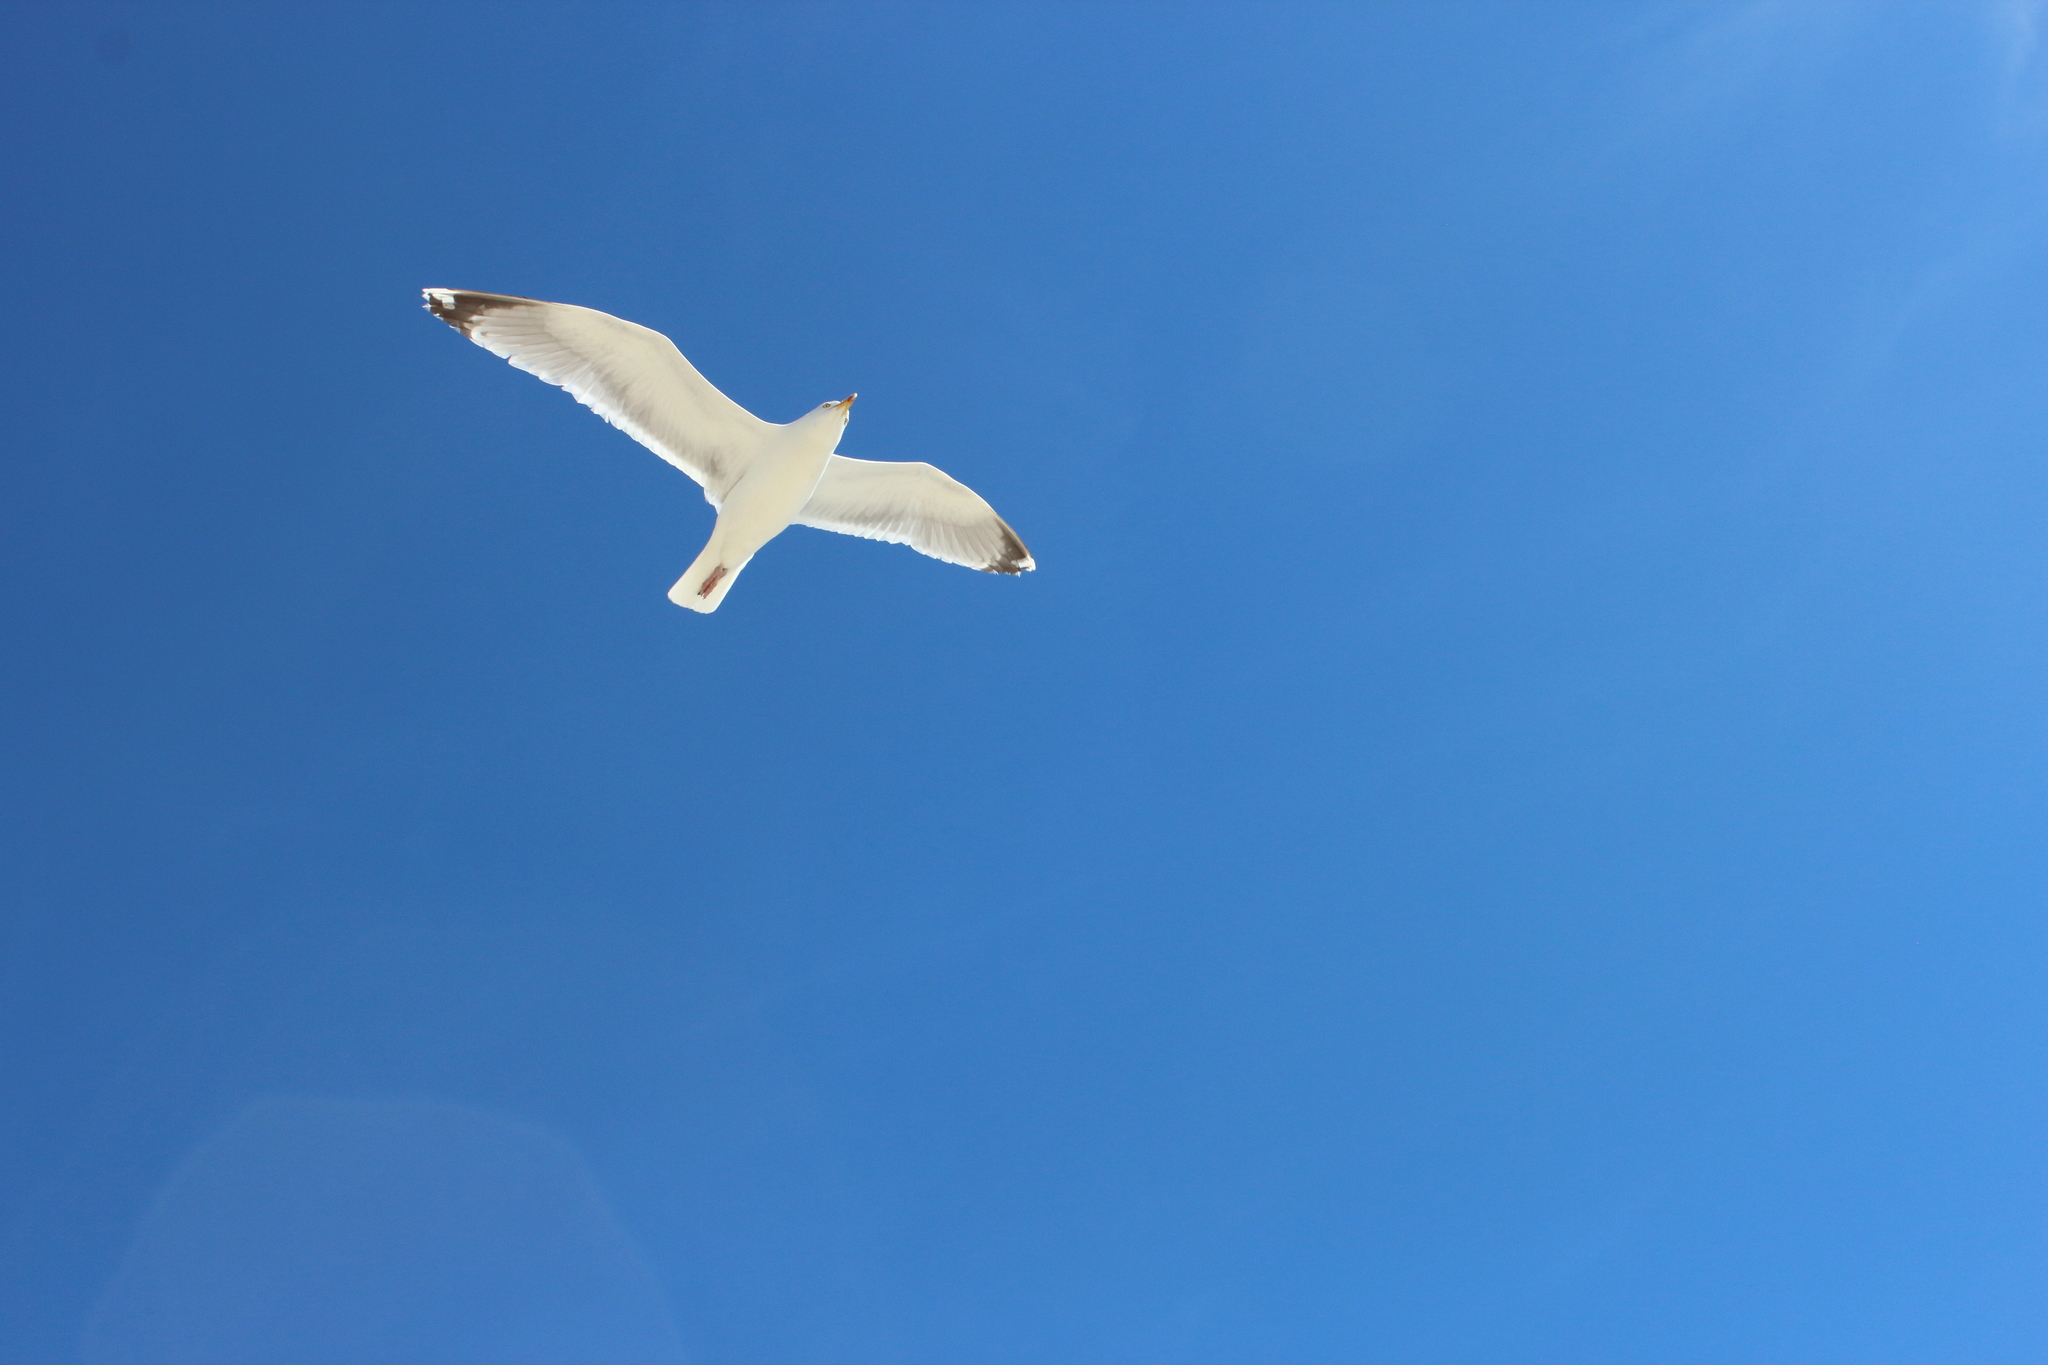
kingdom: Animalia
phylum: Chordata
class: Aves
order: Charadriiformes
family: Laridae
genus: Larus
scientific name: Larus argentatus
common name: Herring gull
